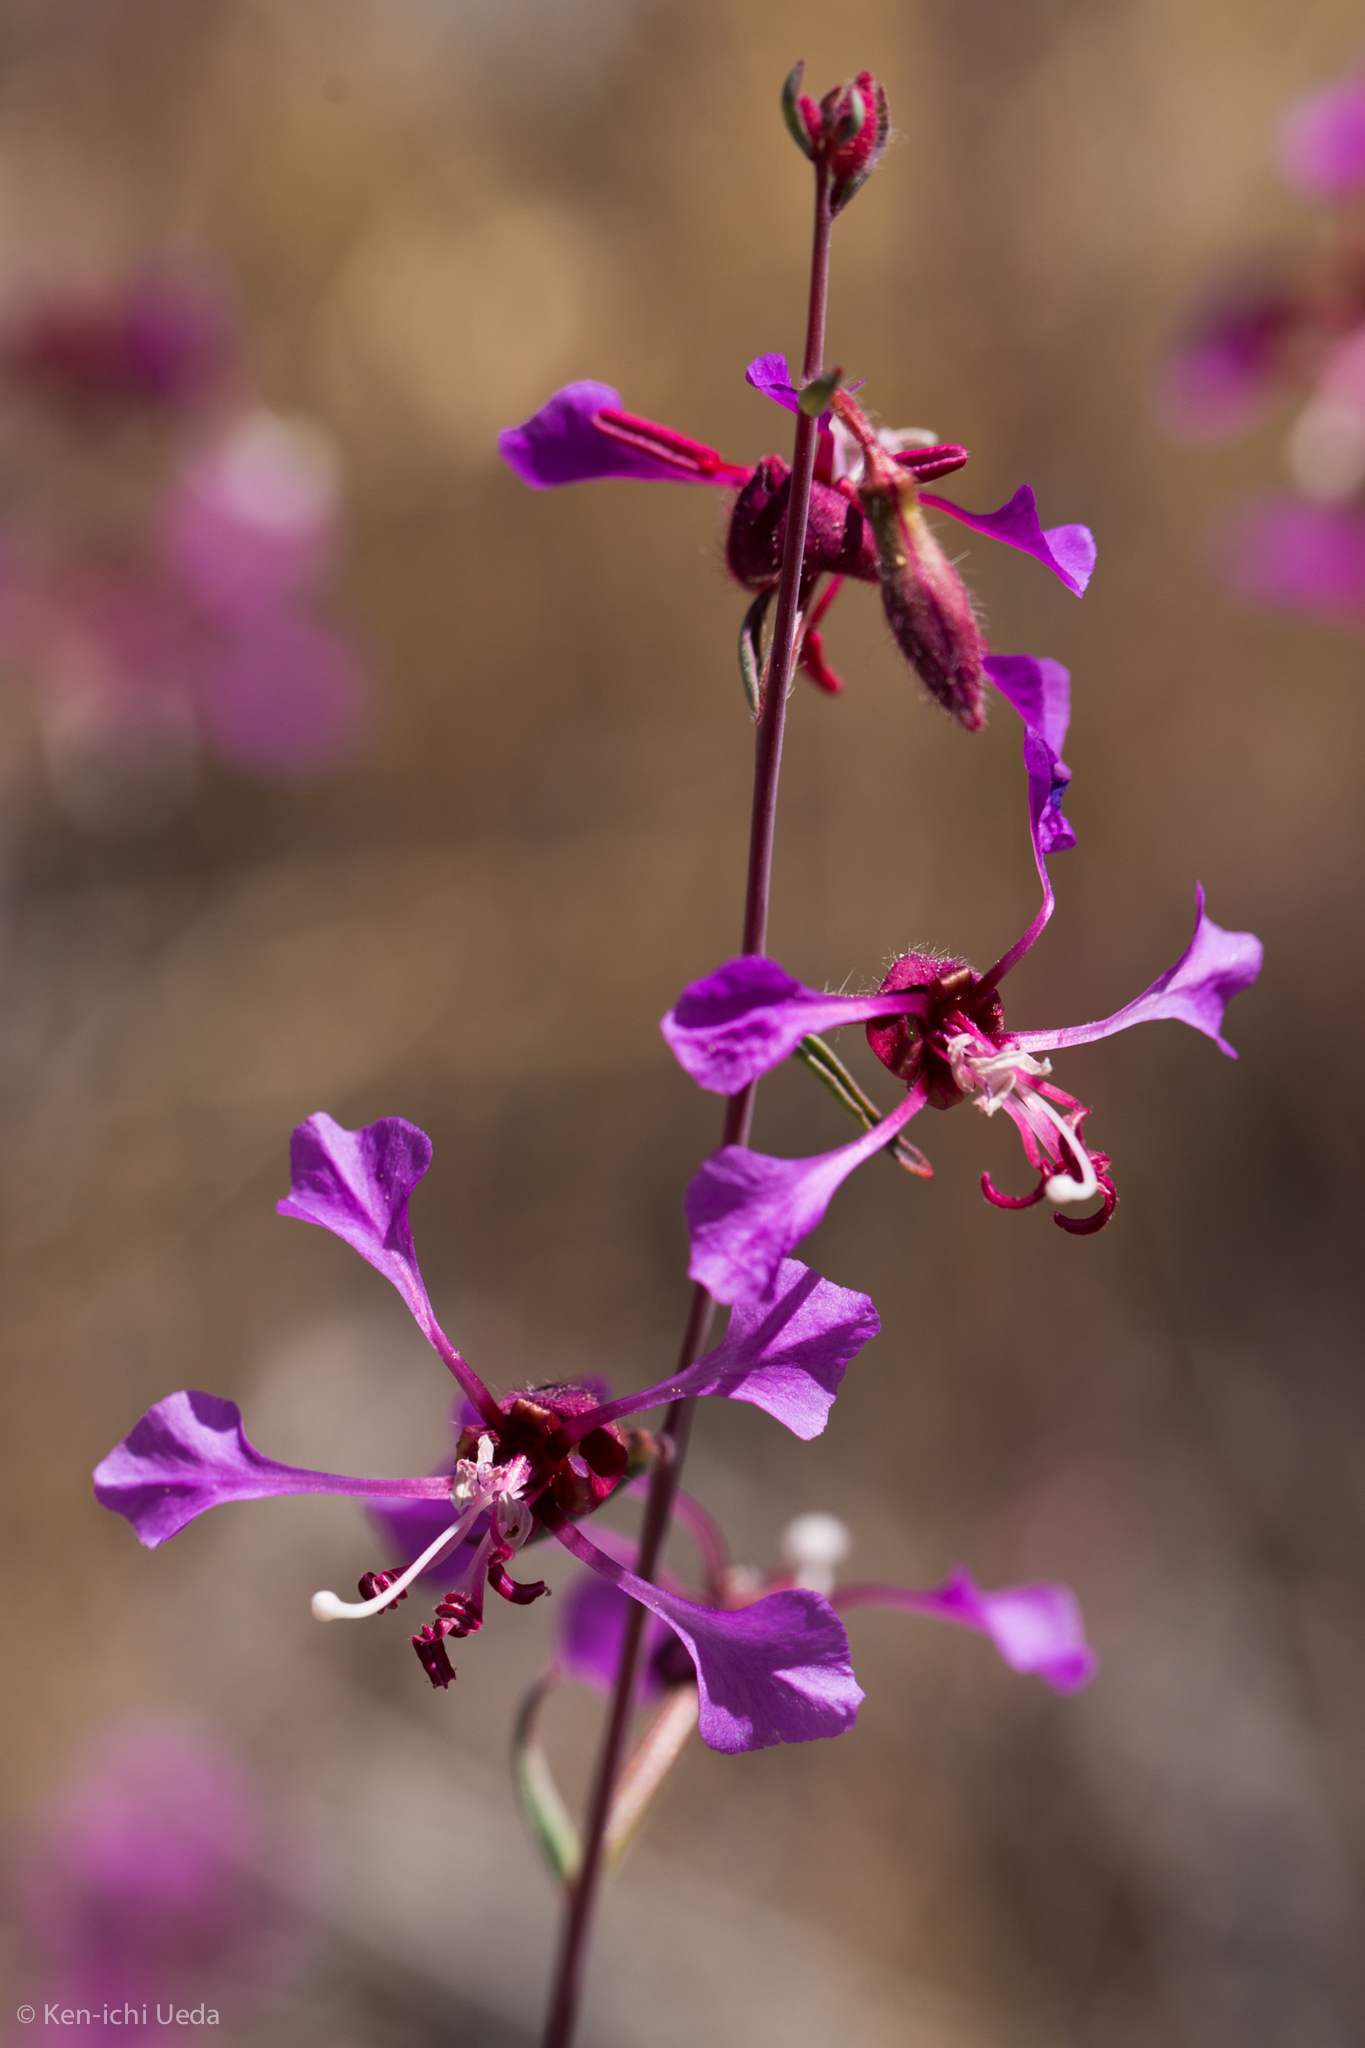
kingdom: Plantae
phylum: Tracheophyta
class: Magnoliopsida
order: Myrtales
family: Onagraceae
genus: Clarkia
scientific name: Clarkia unguiculata
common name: Clarkia
